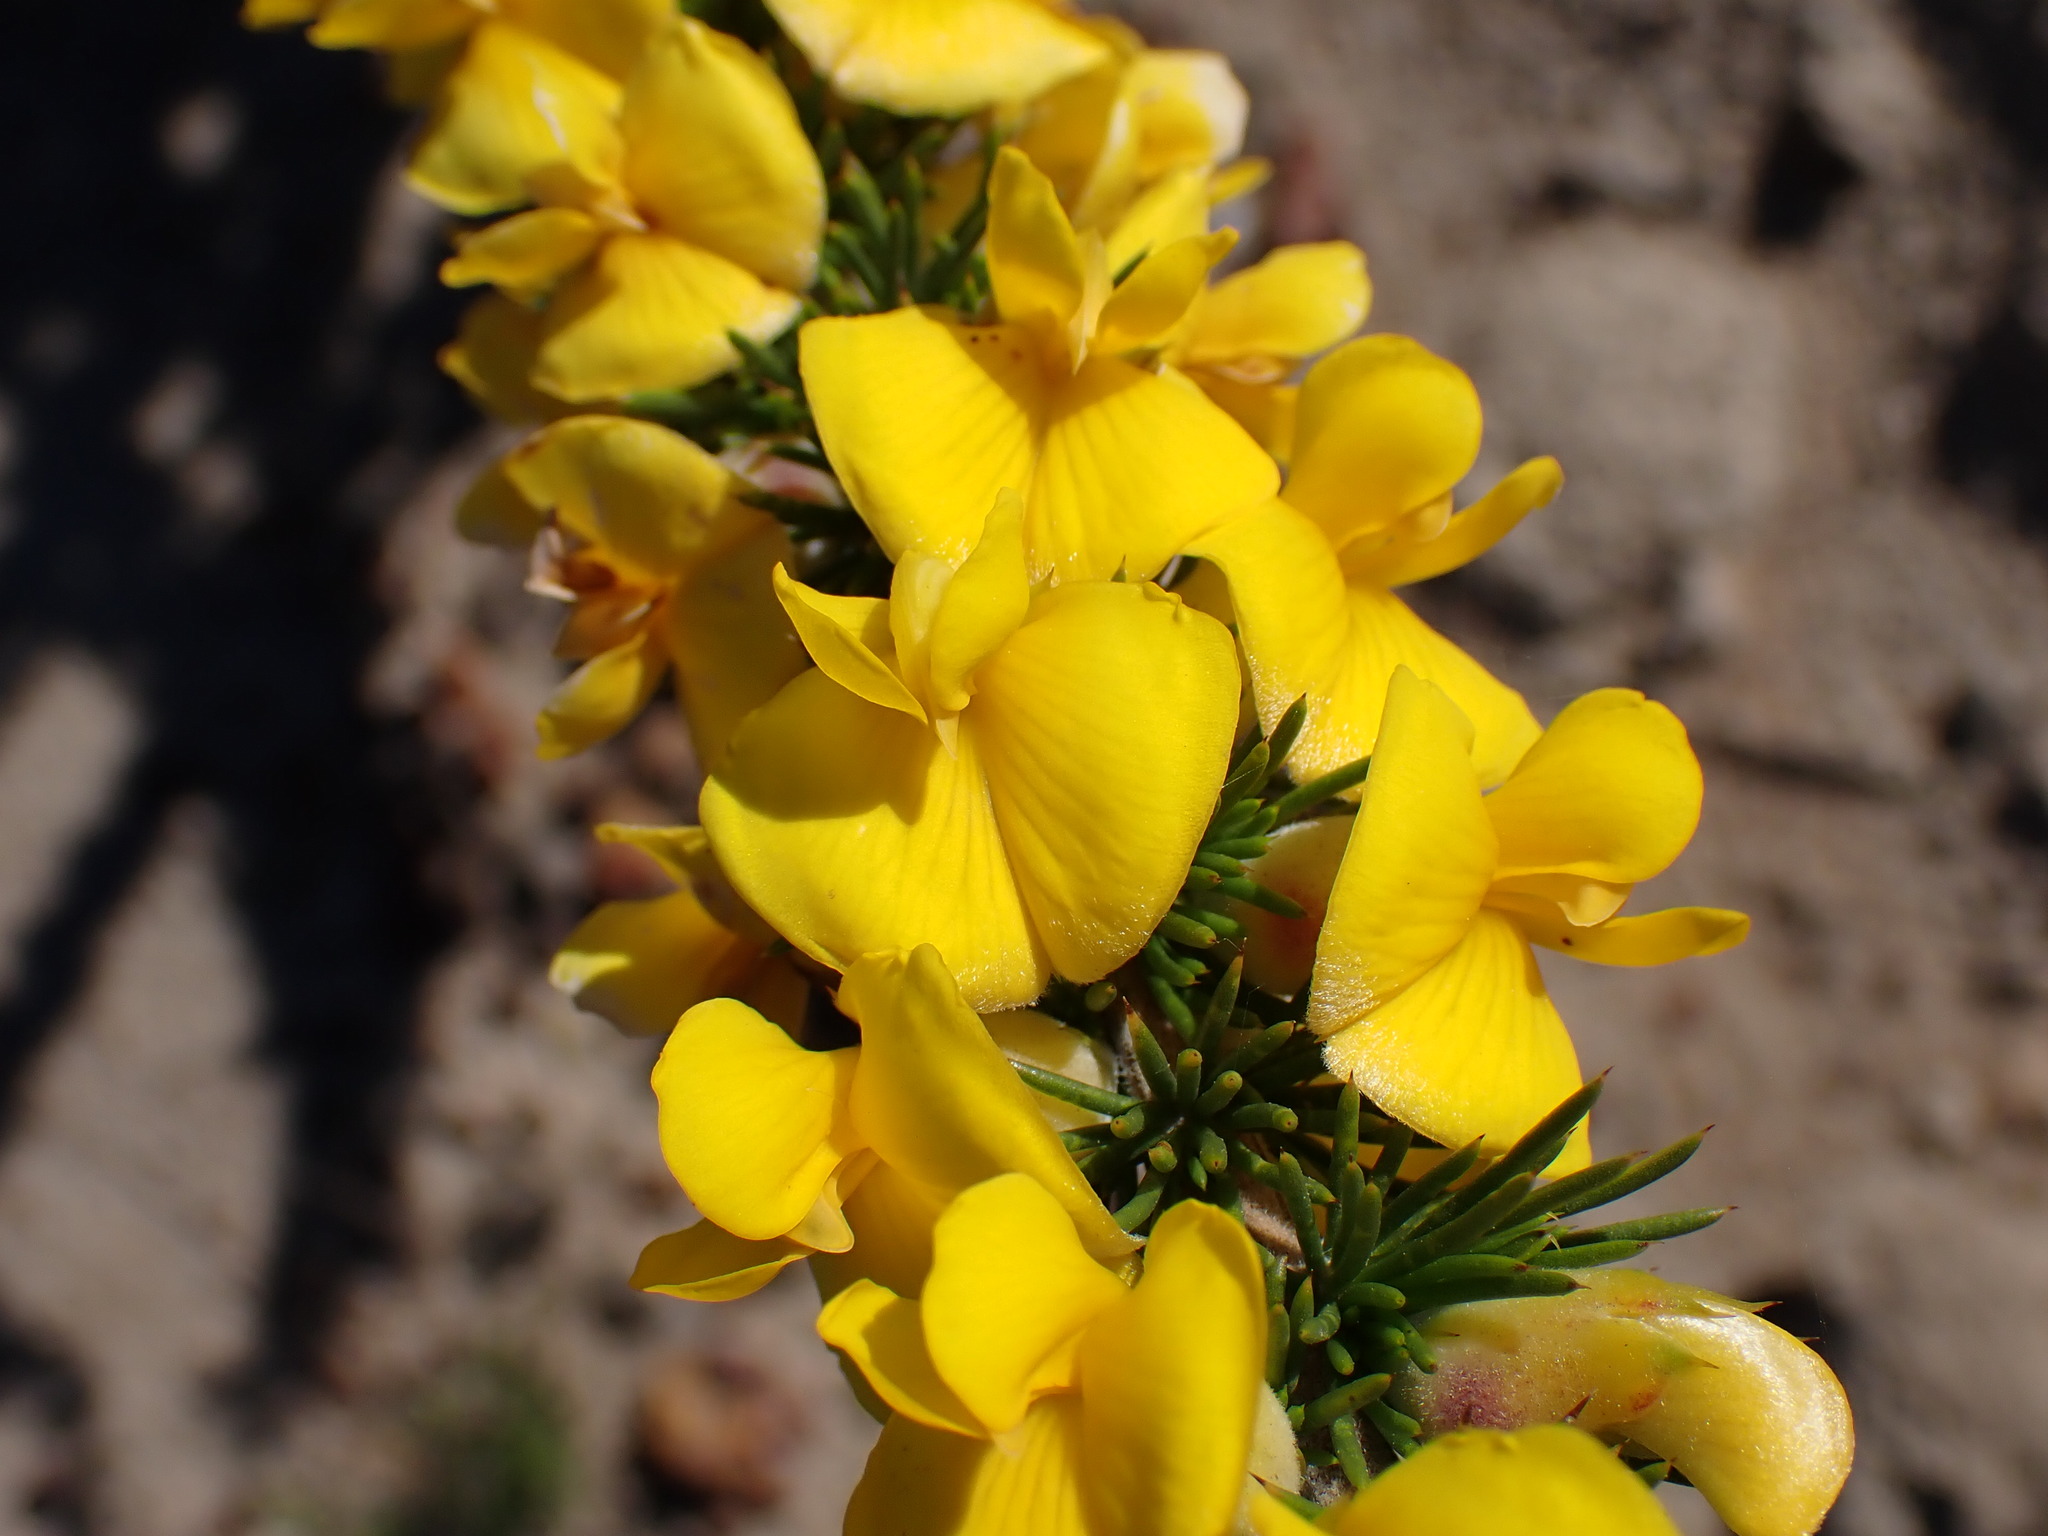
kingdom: Plantae
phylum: Tracheophyta
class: Magnoliopsida
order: Fabales
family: Fabaceae
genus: Aspalathus
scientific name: Aspalathus sceptrumaureum
